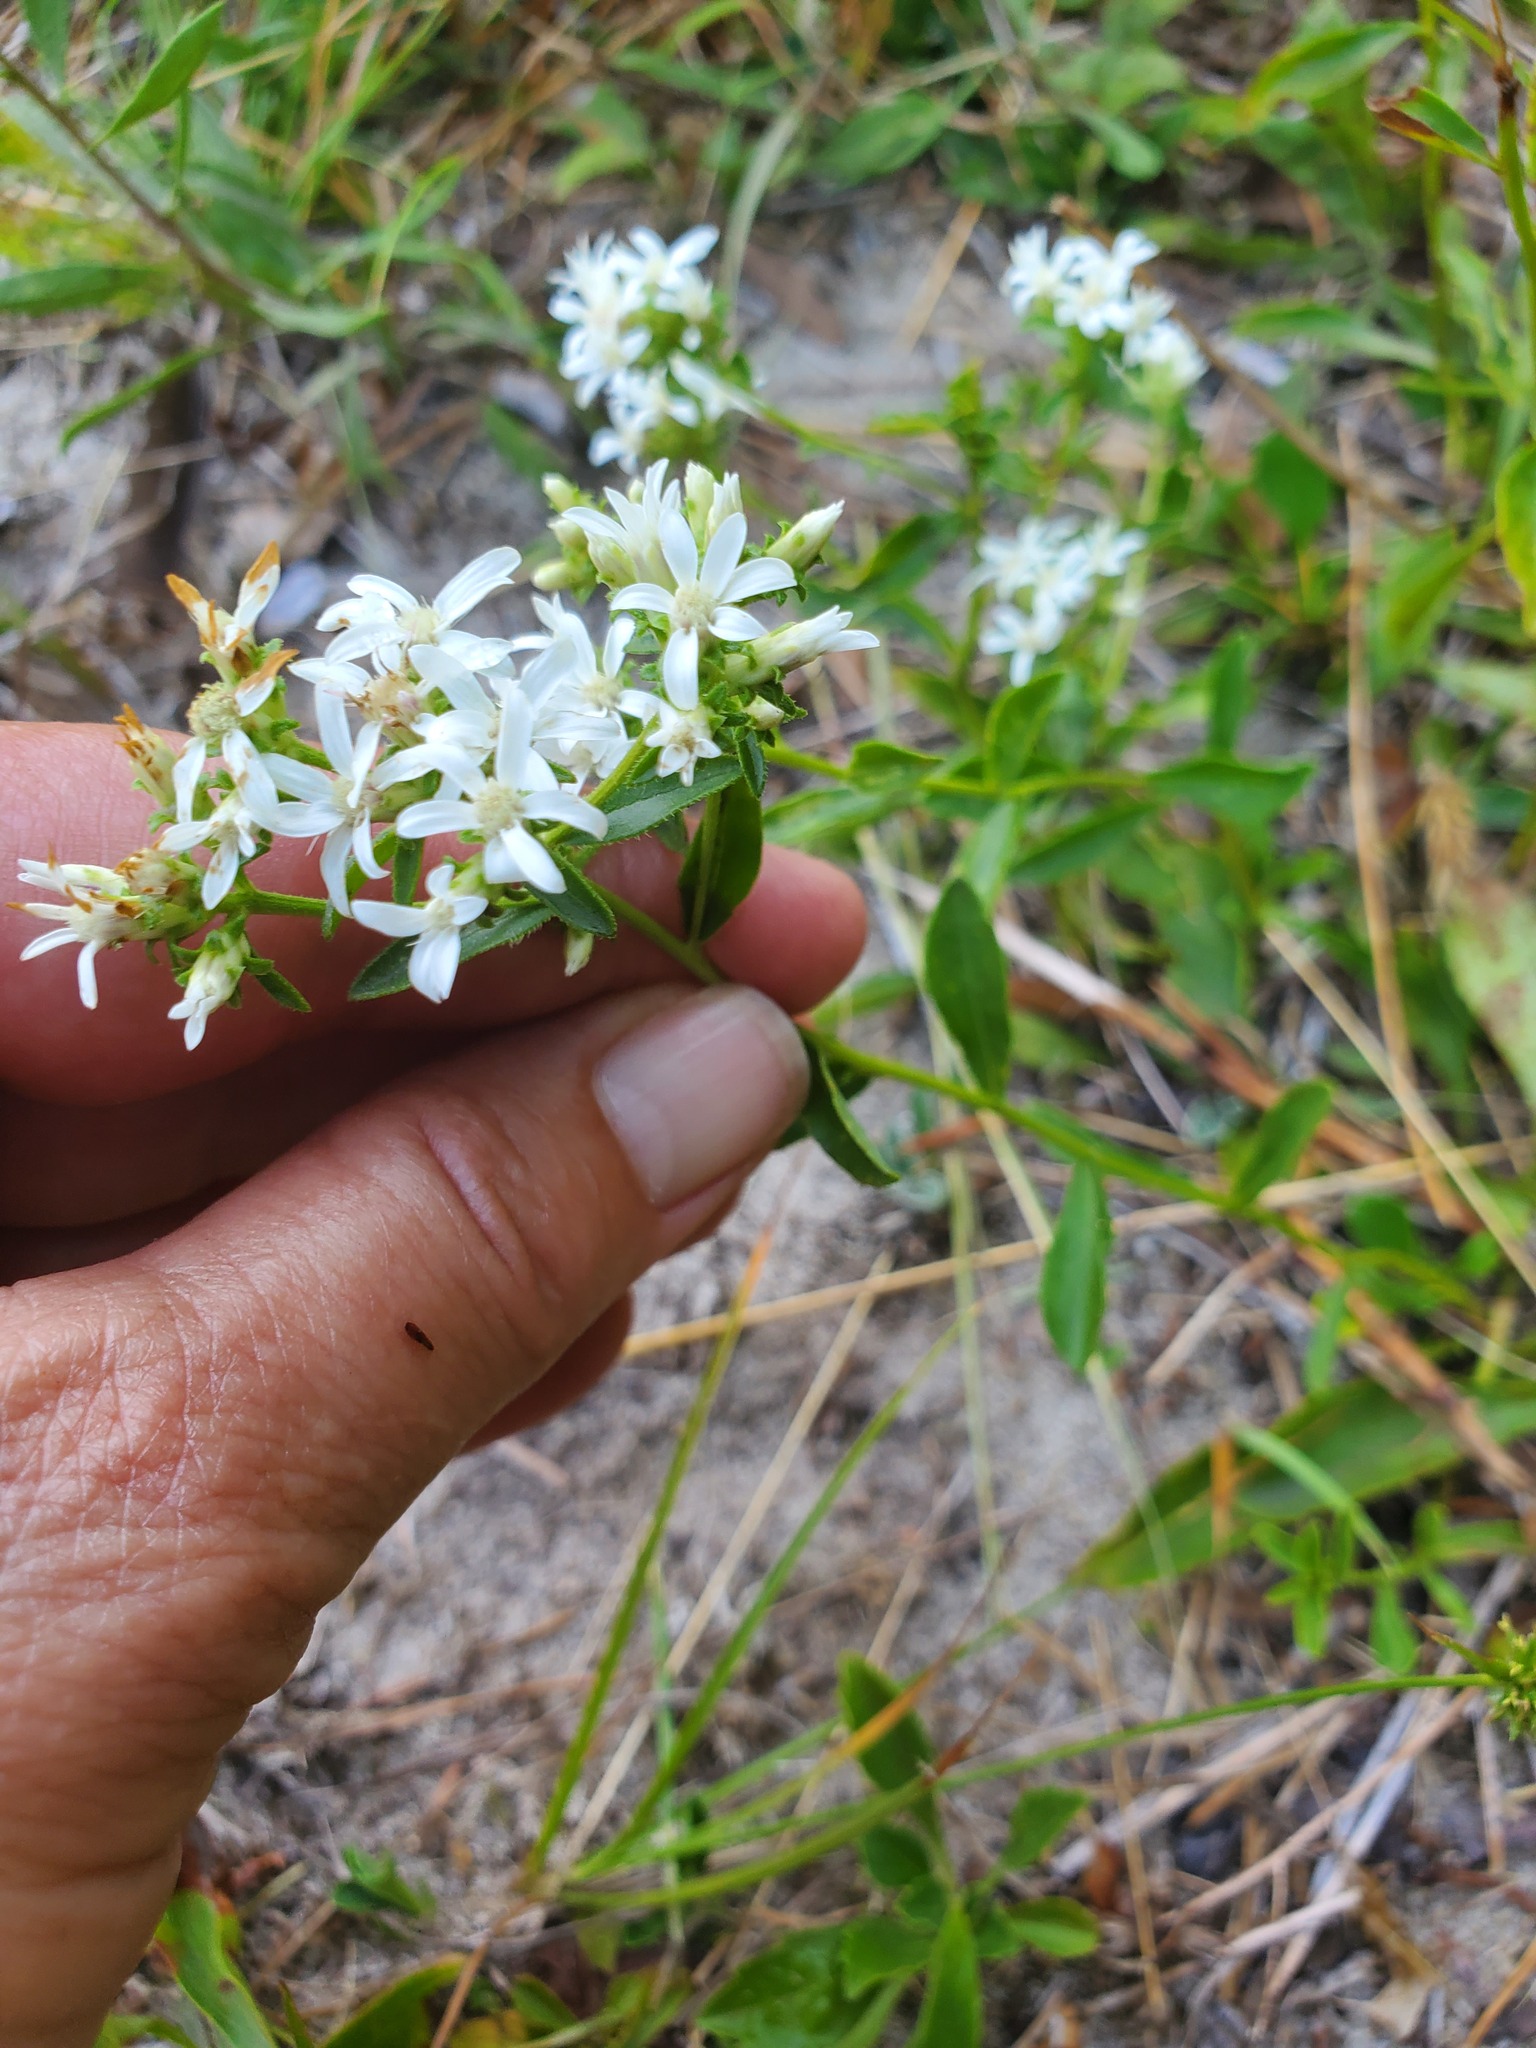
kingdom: Plantae
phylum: Tracheophyta
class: Magnoliopsida
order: Asterales
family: Asteraceae
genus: Sericocarpus
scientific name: Sericocarpus asteroides
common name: Toothed white-top aster
